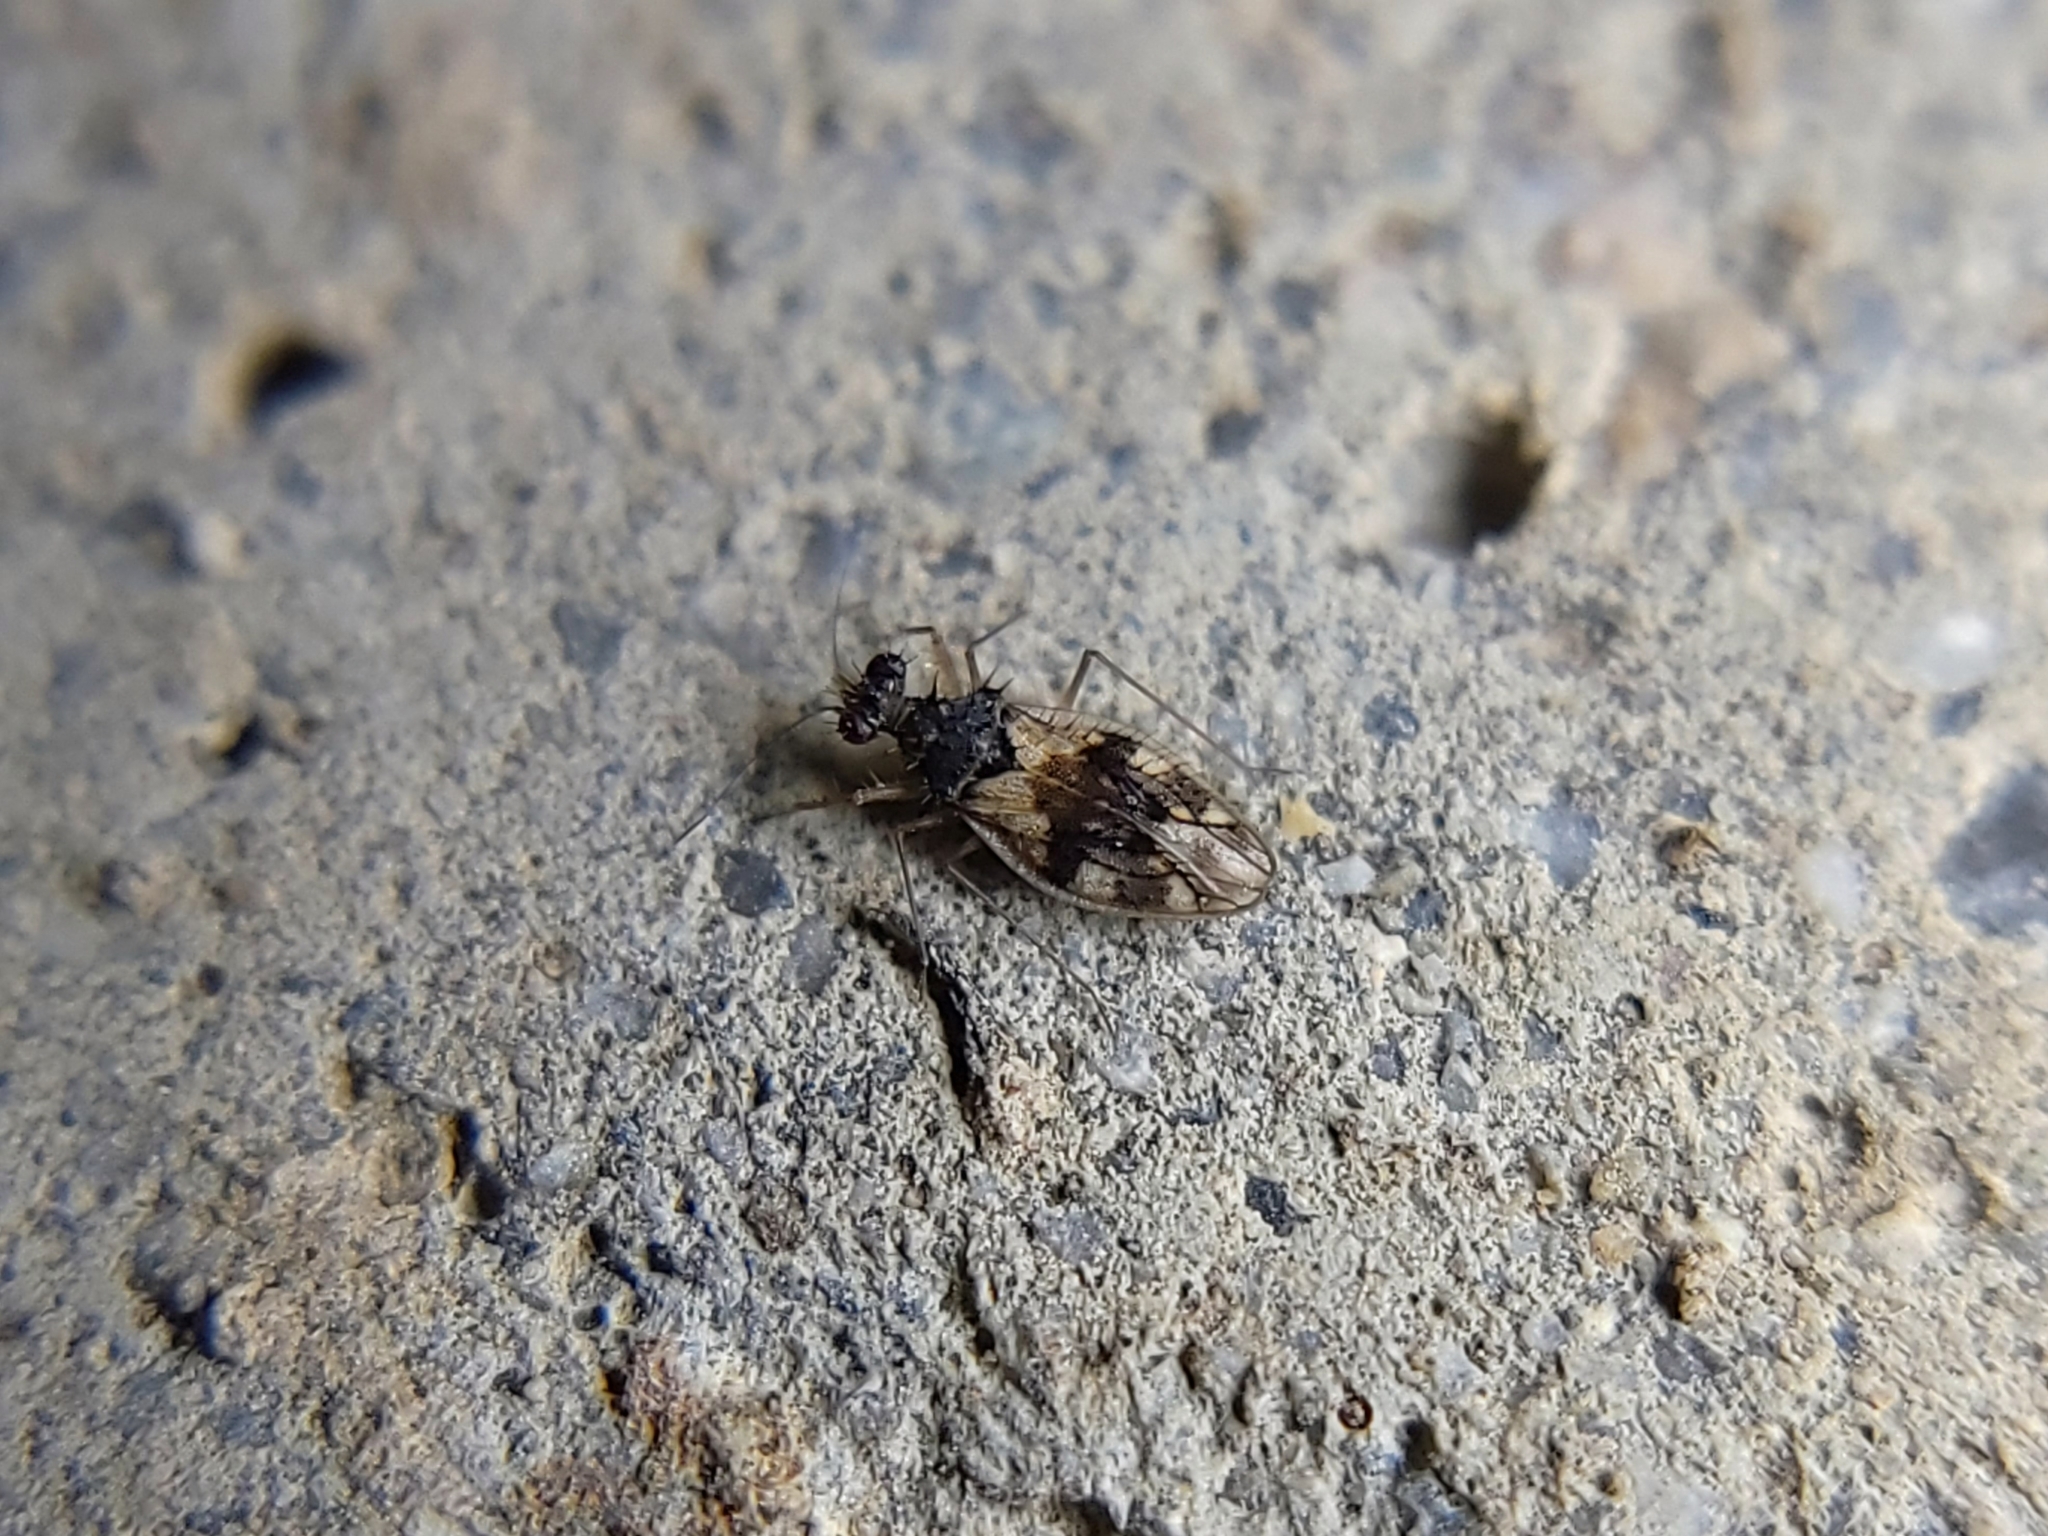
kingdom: Animalia
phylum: Arthropoda
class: Insecta
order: Hemiptera
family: Leptopodidae
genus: Patapius
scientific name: Patapius spinosus
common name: Spiny-legged bug
